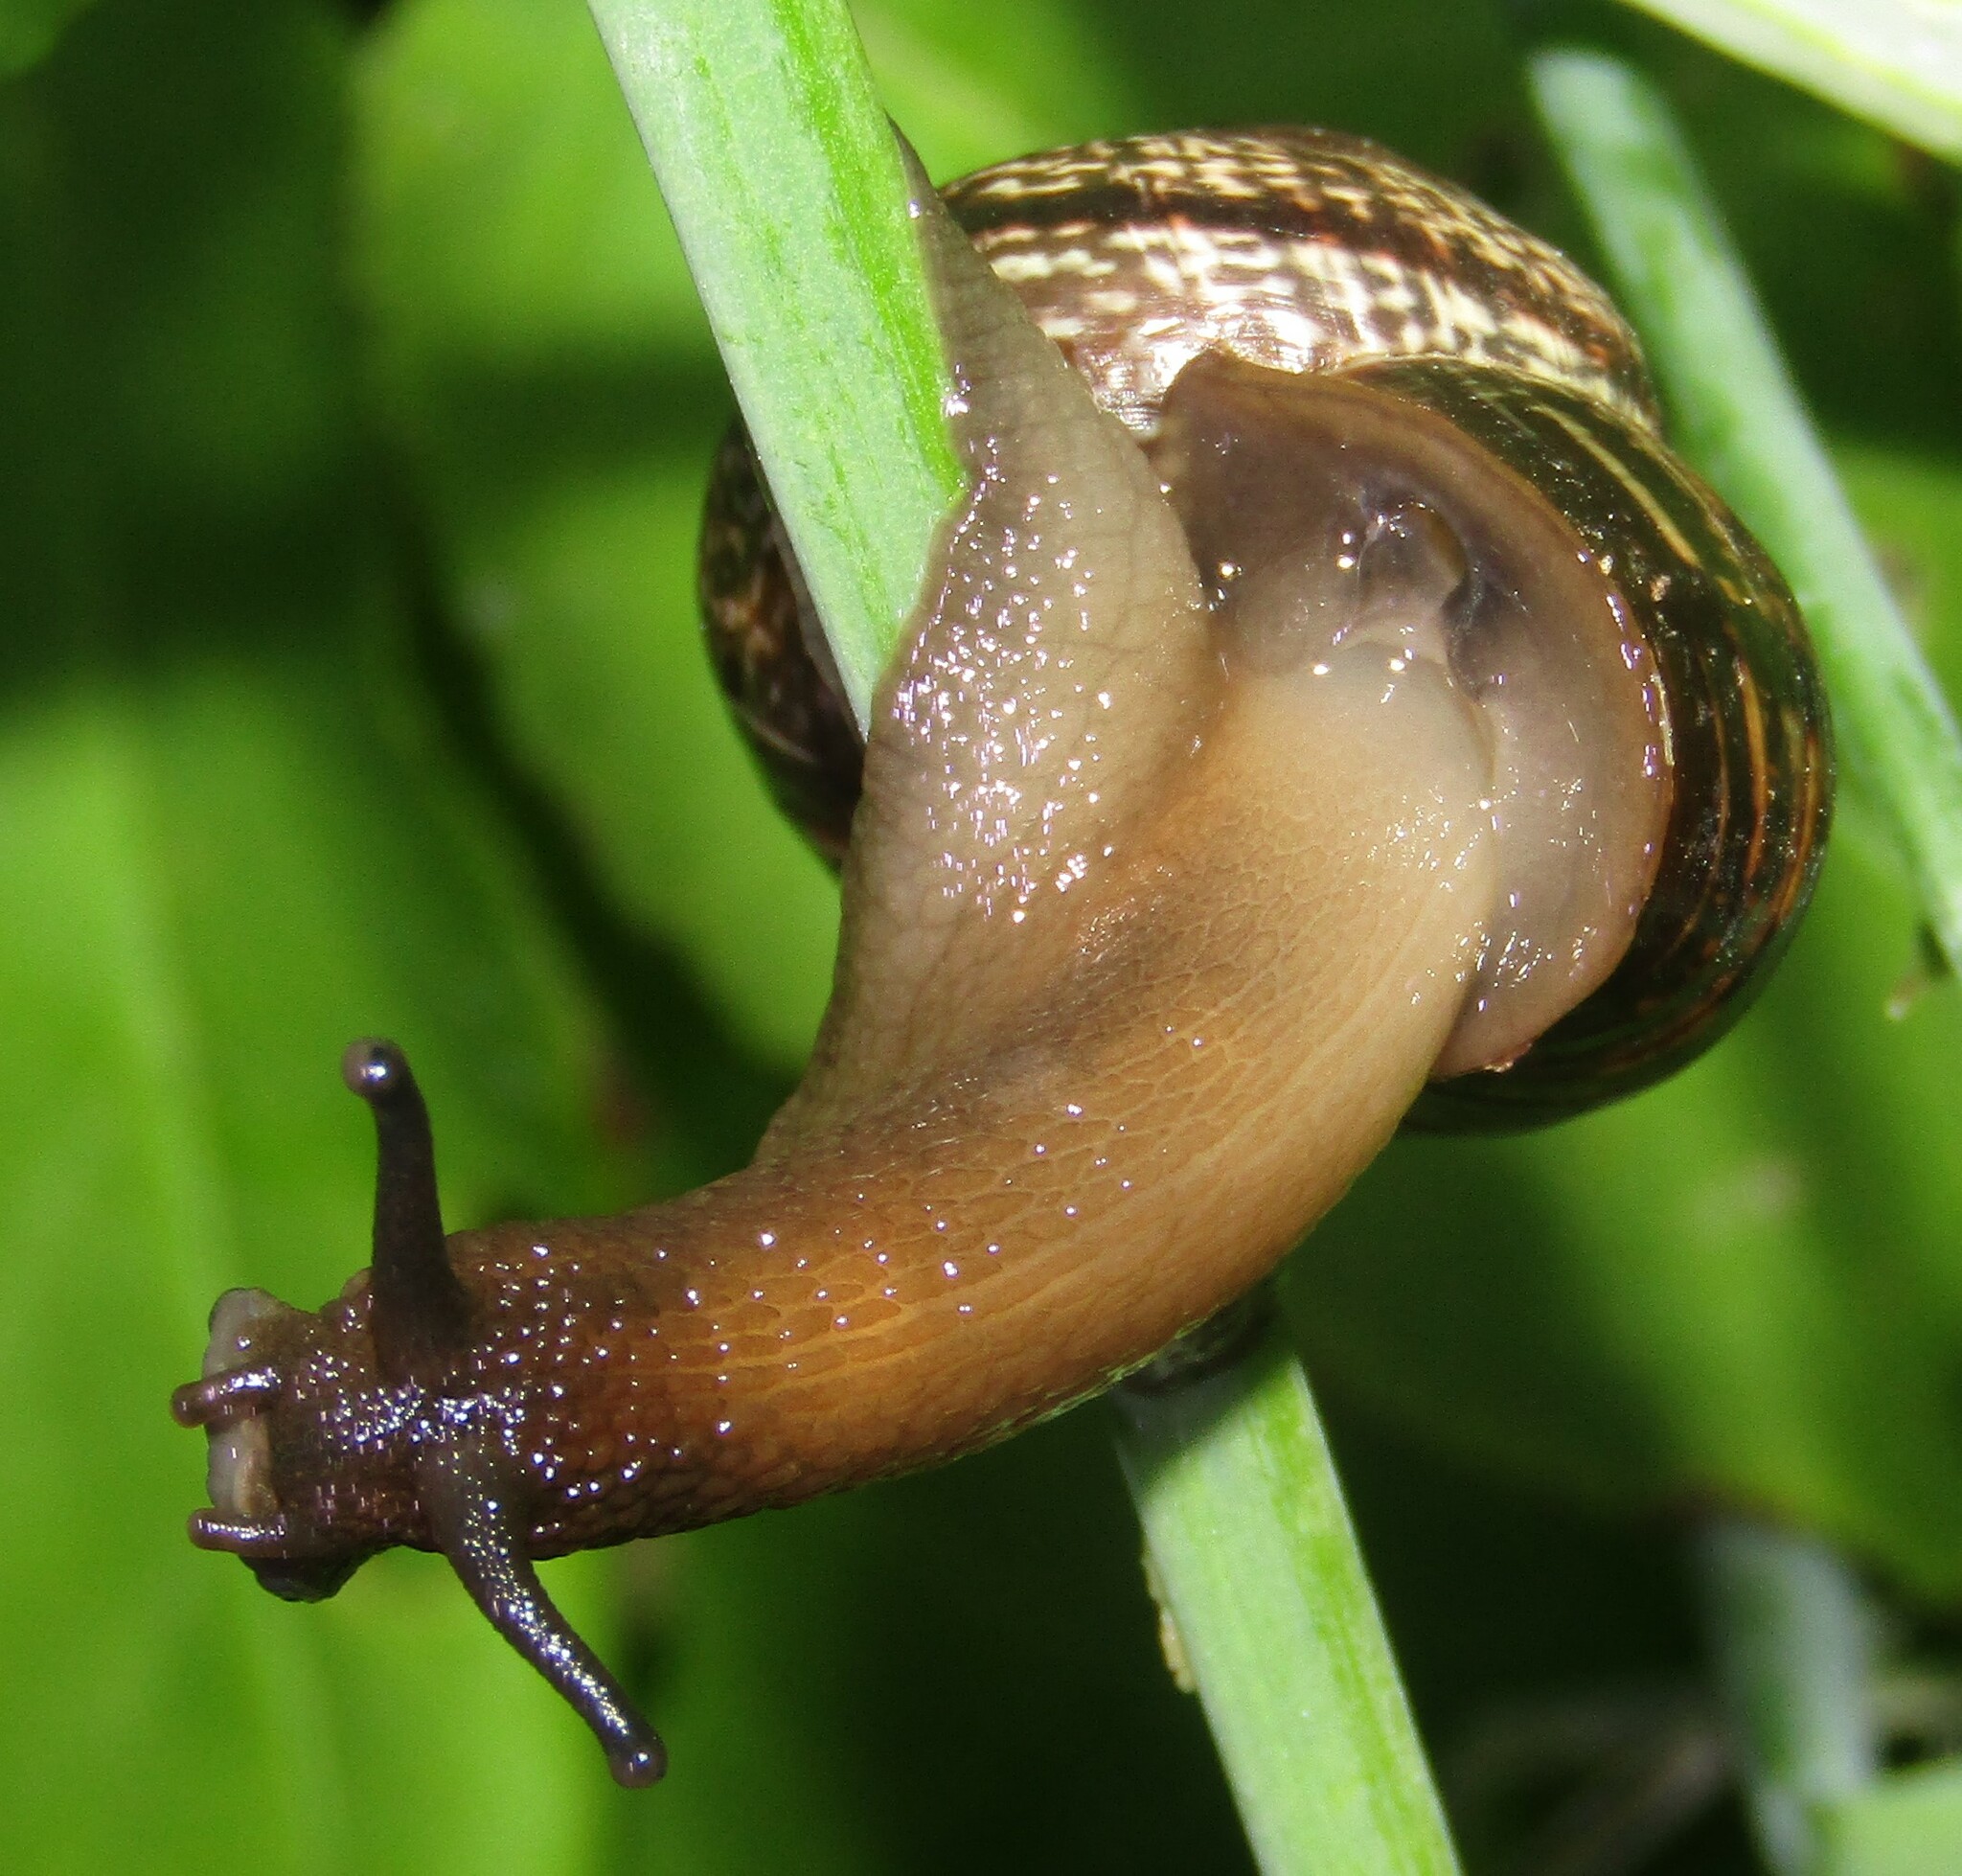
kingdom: Animalia
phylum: Mollusca
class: Gastropoda
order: Stylommatophora
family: Helicidae
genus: Arianta
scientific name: Arianta arbustorum
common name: Copse snail
